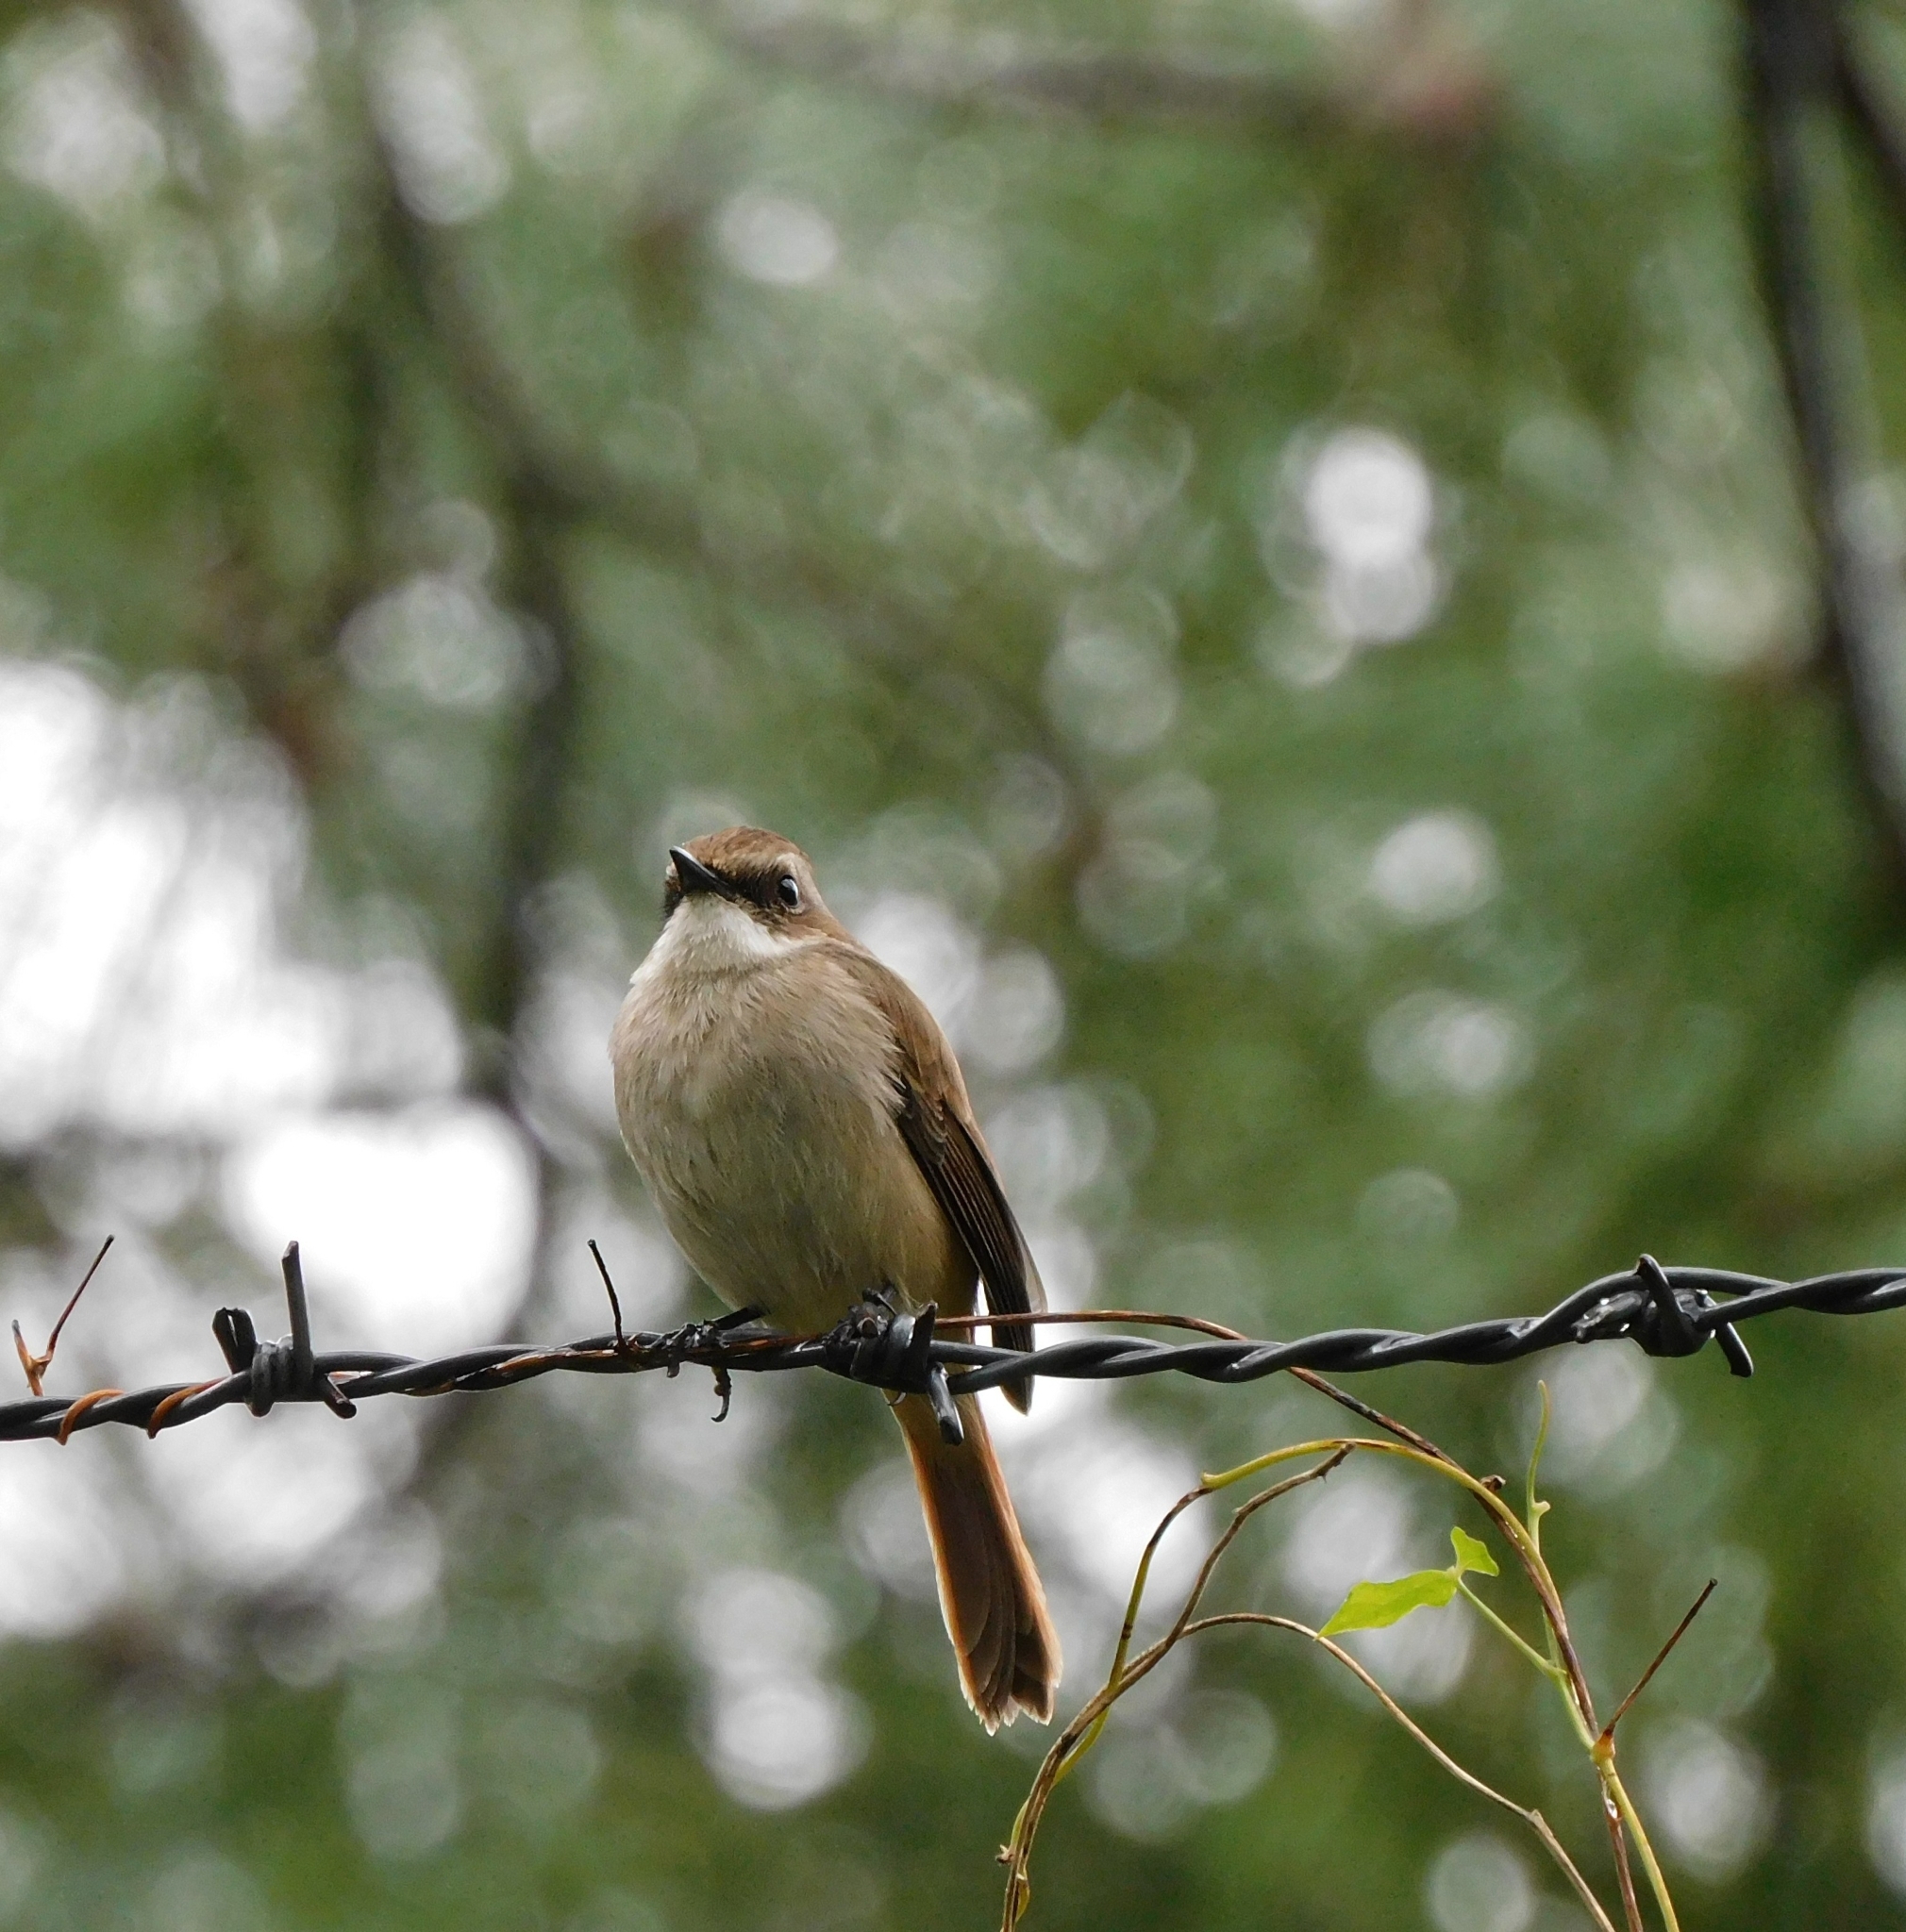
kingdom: Animalia
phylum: Chordata
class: Aves
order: Passeriformes
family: Muscicapidae
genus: Saxicola
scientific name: Saxicola ferreus
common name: Grey bush chat
